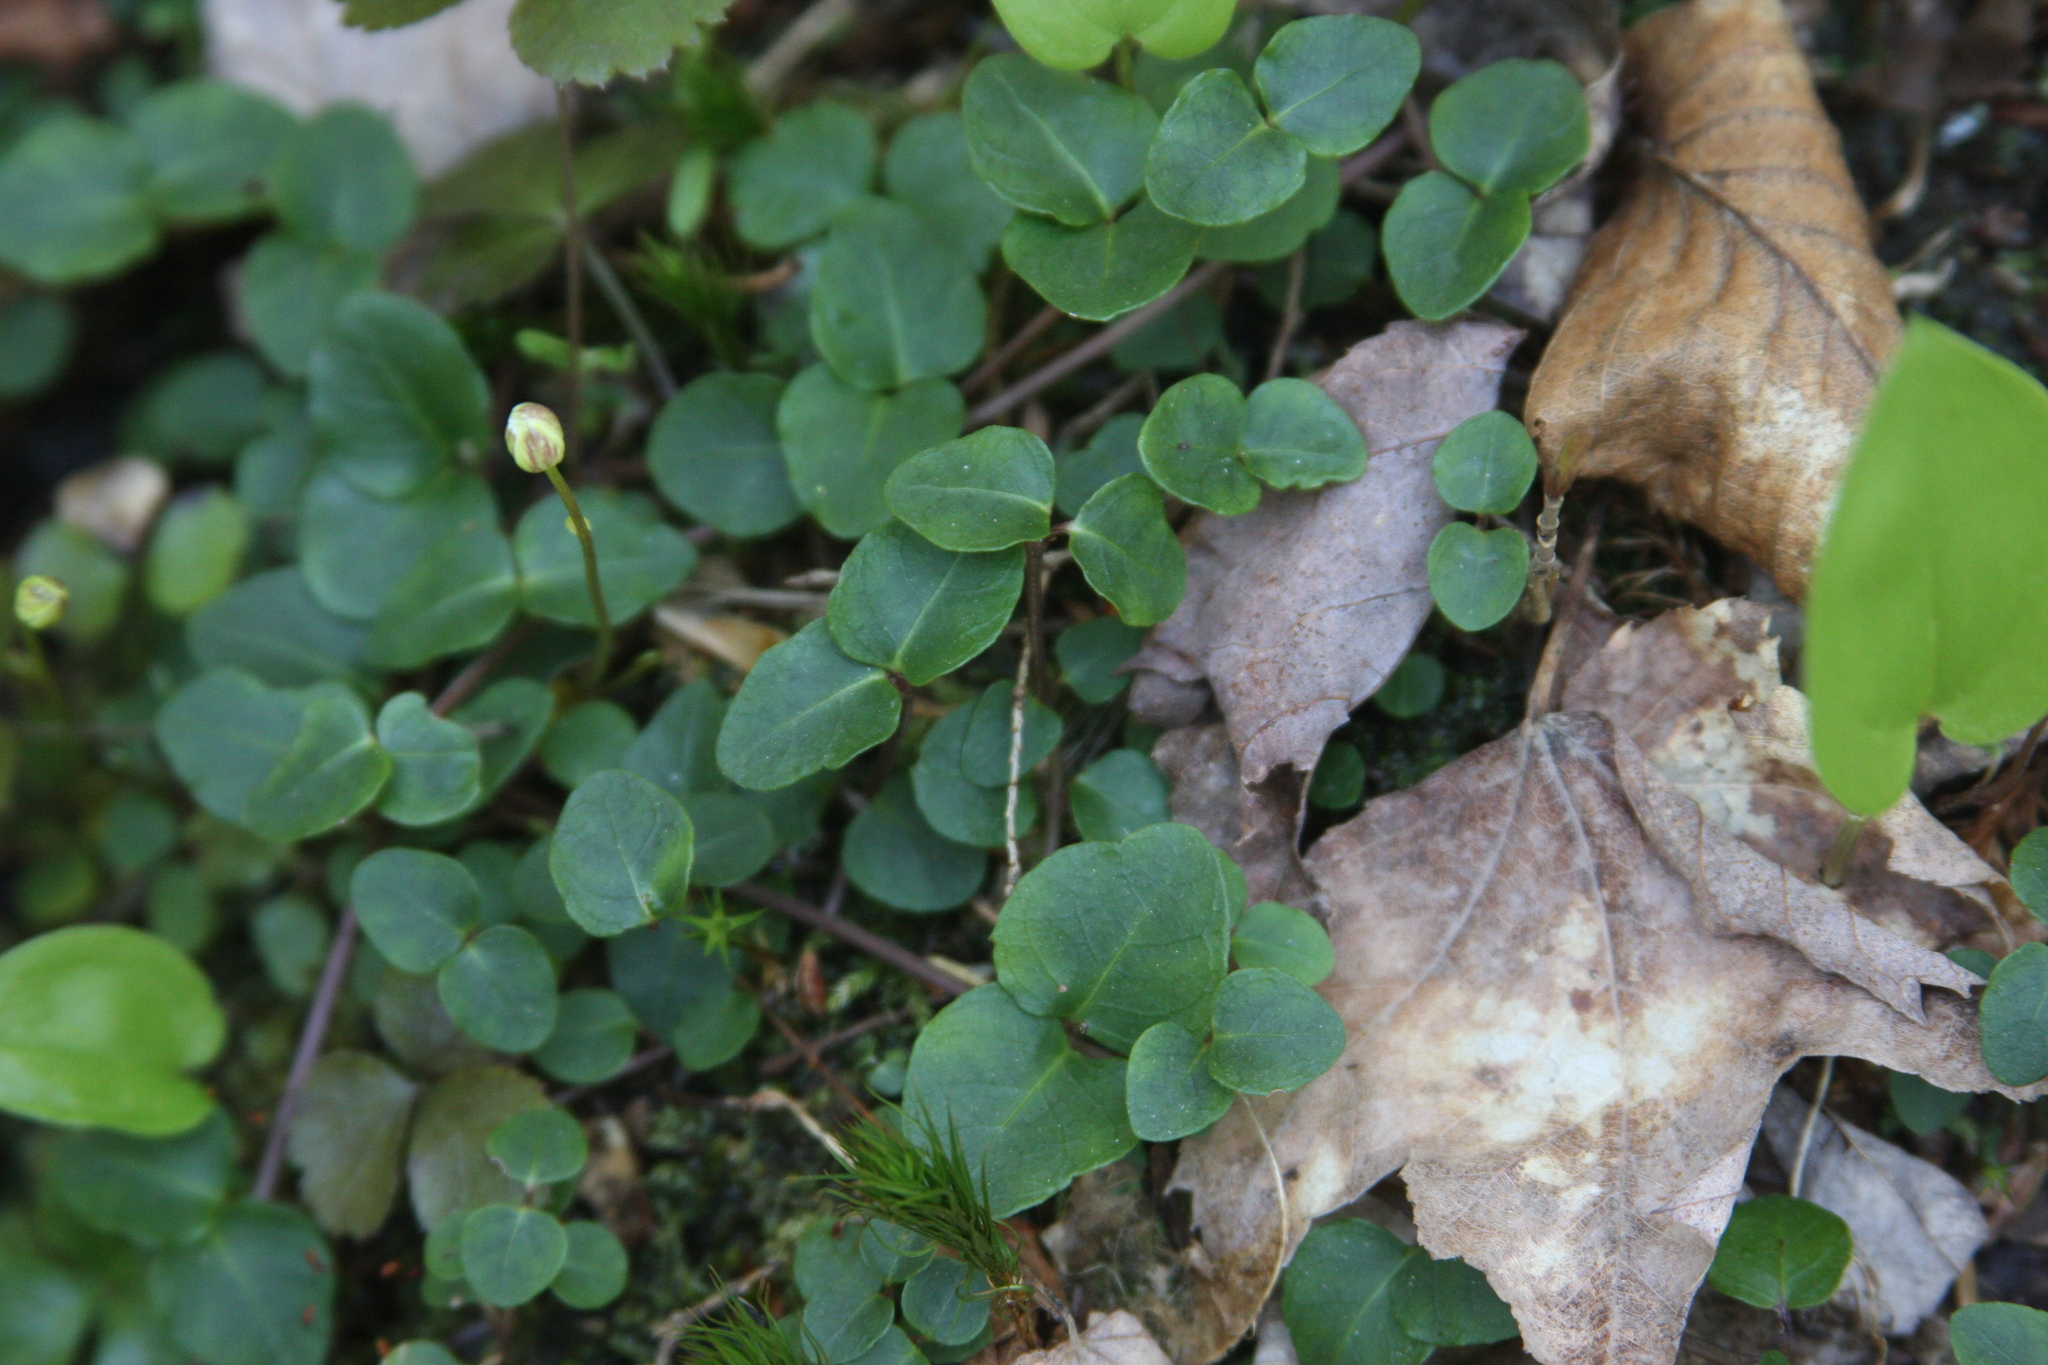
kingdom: Plantae
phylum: Tracheophyta
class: Magnoliopsida
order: Gentianales
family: Rubiaceae
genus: Mitchella
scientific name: Mitchella repens
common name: Partridge-berry
